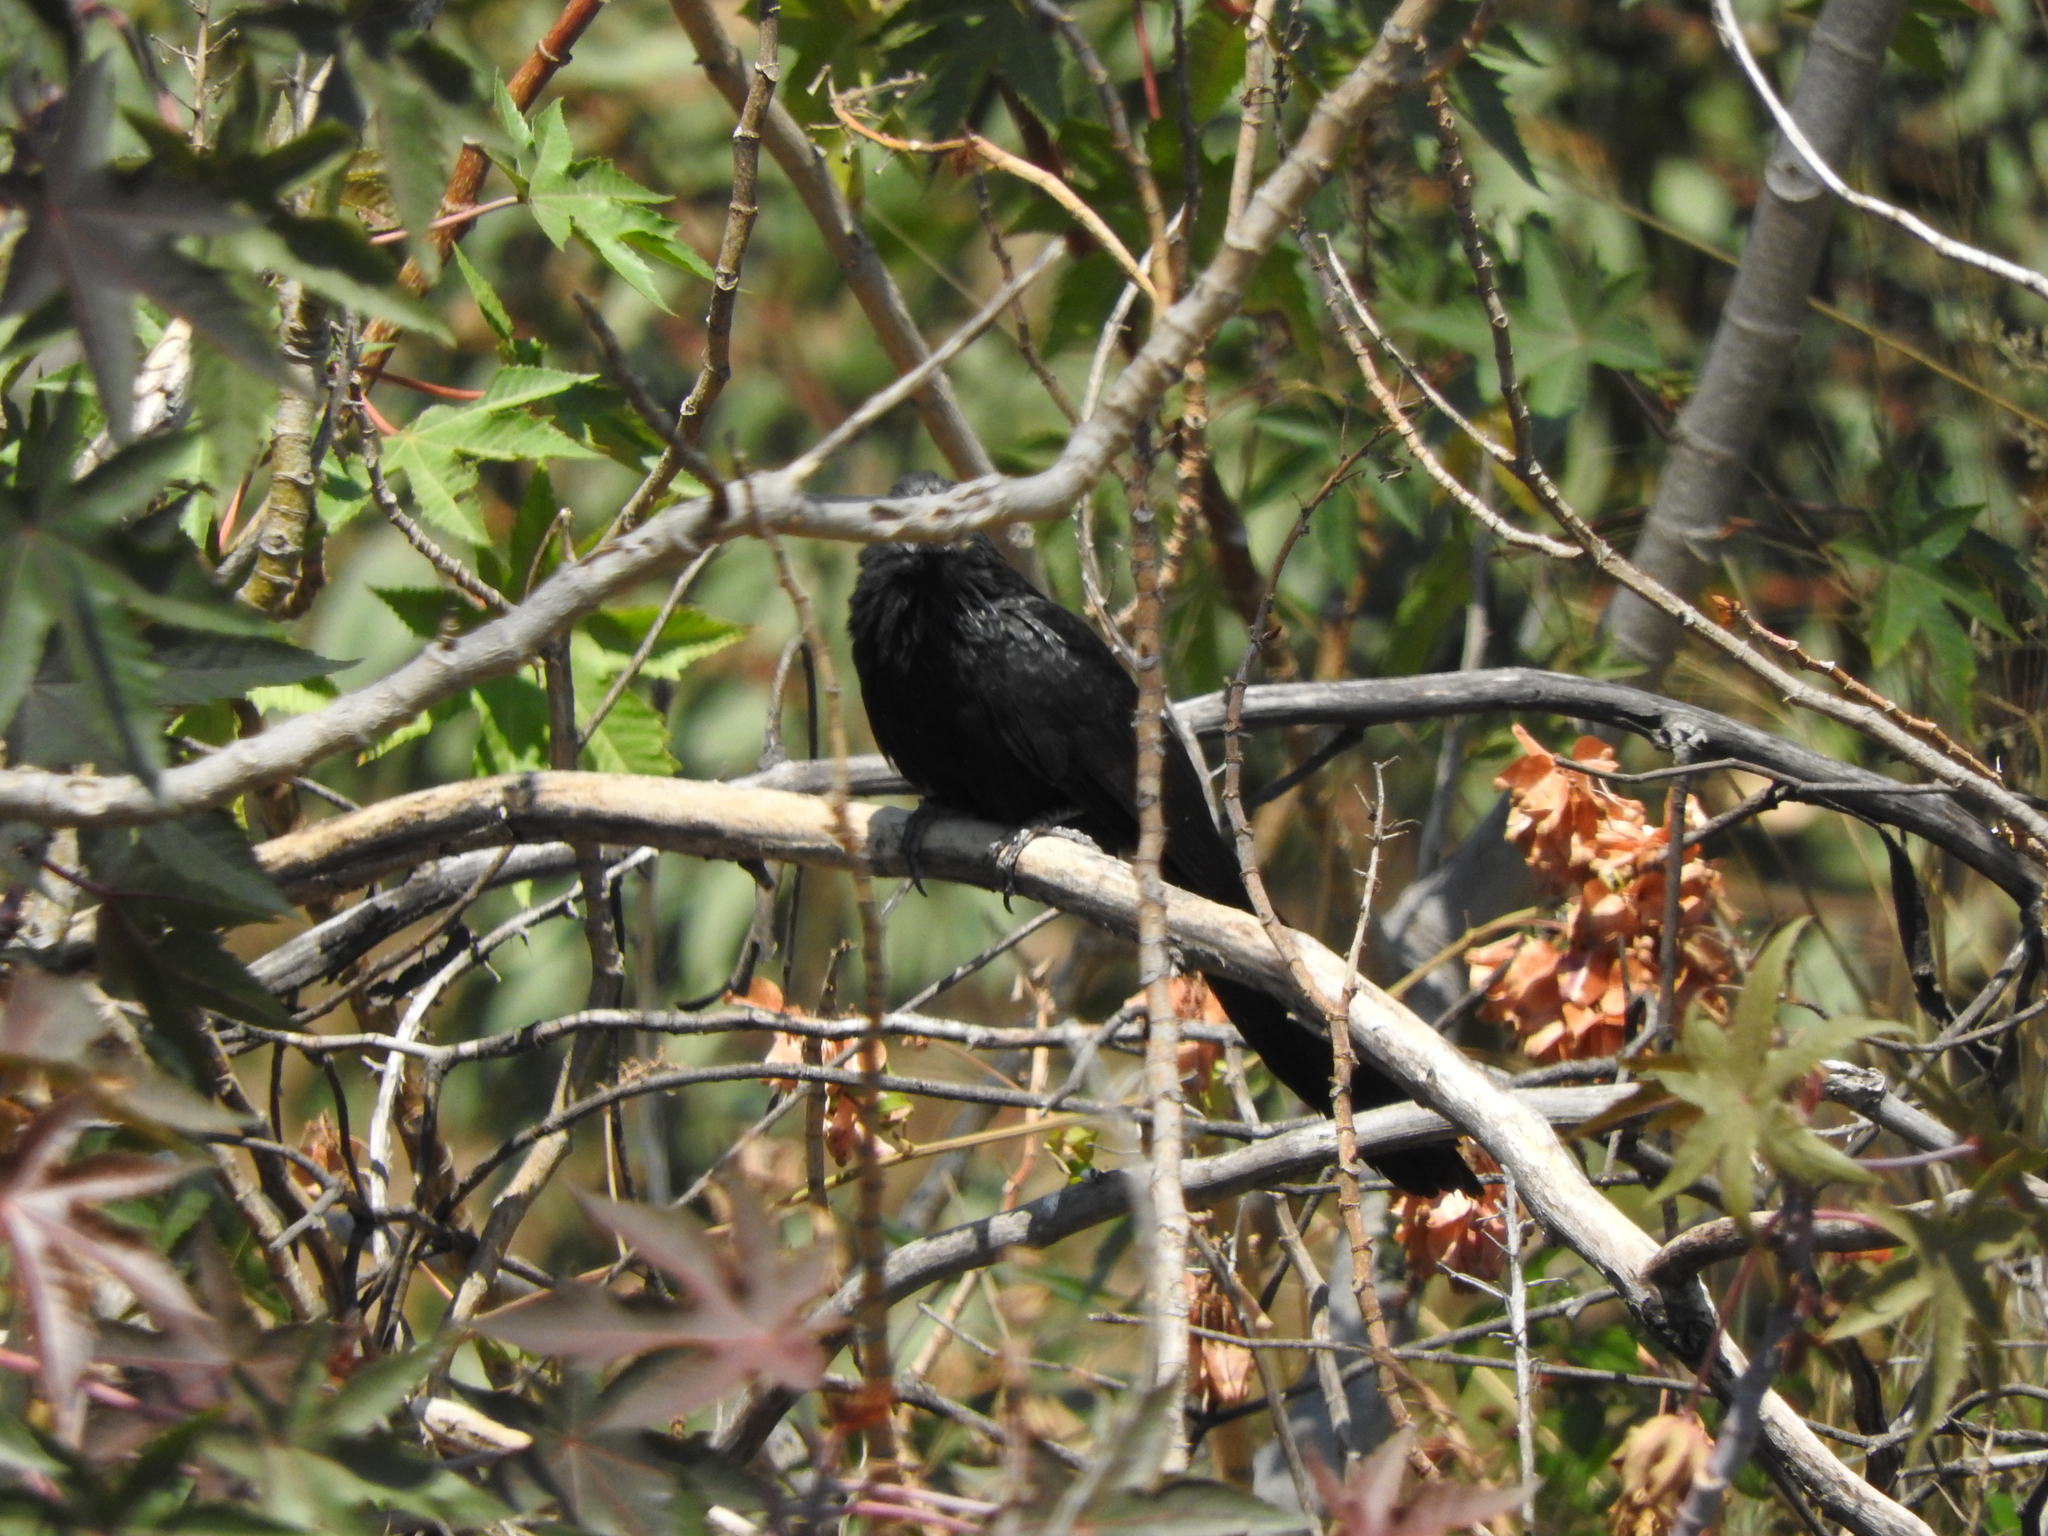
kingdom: Animalia
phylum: Chordata
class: Aves
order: Cuculiformes
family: Cuculidae
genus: Crotophaga
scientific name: Crotophaga sulcirostris
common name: Groove-billed ani
